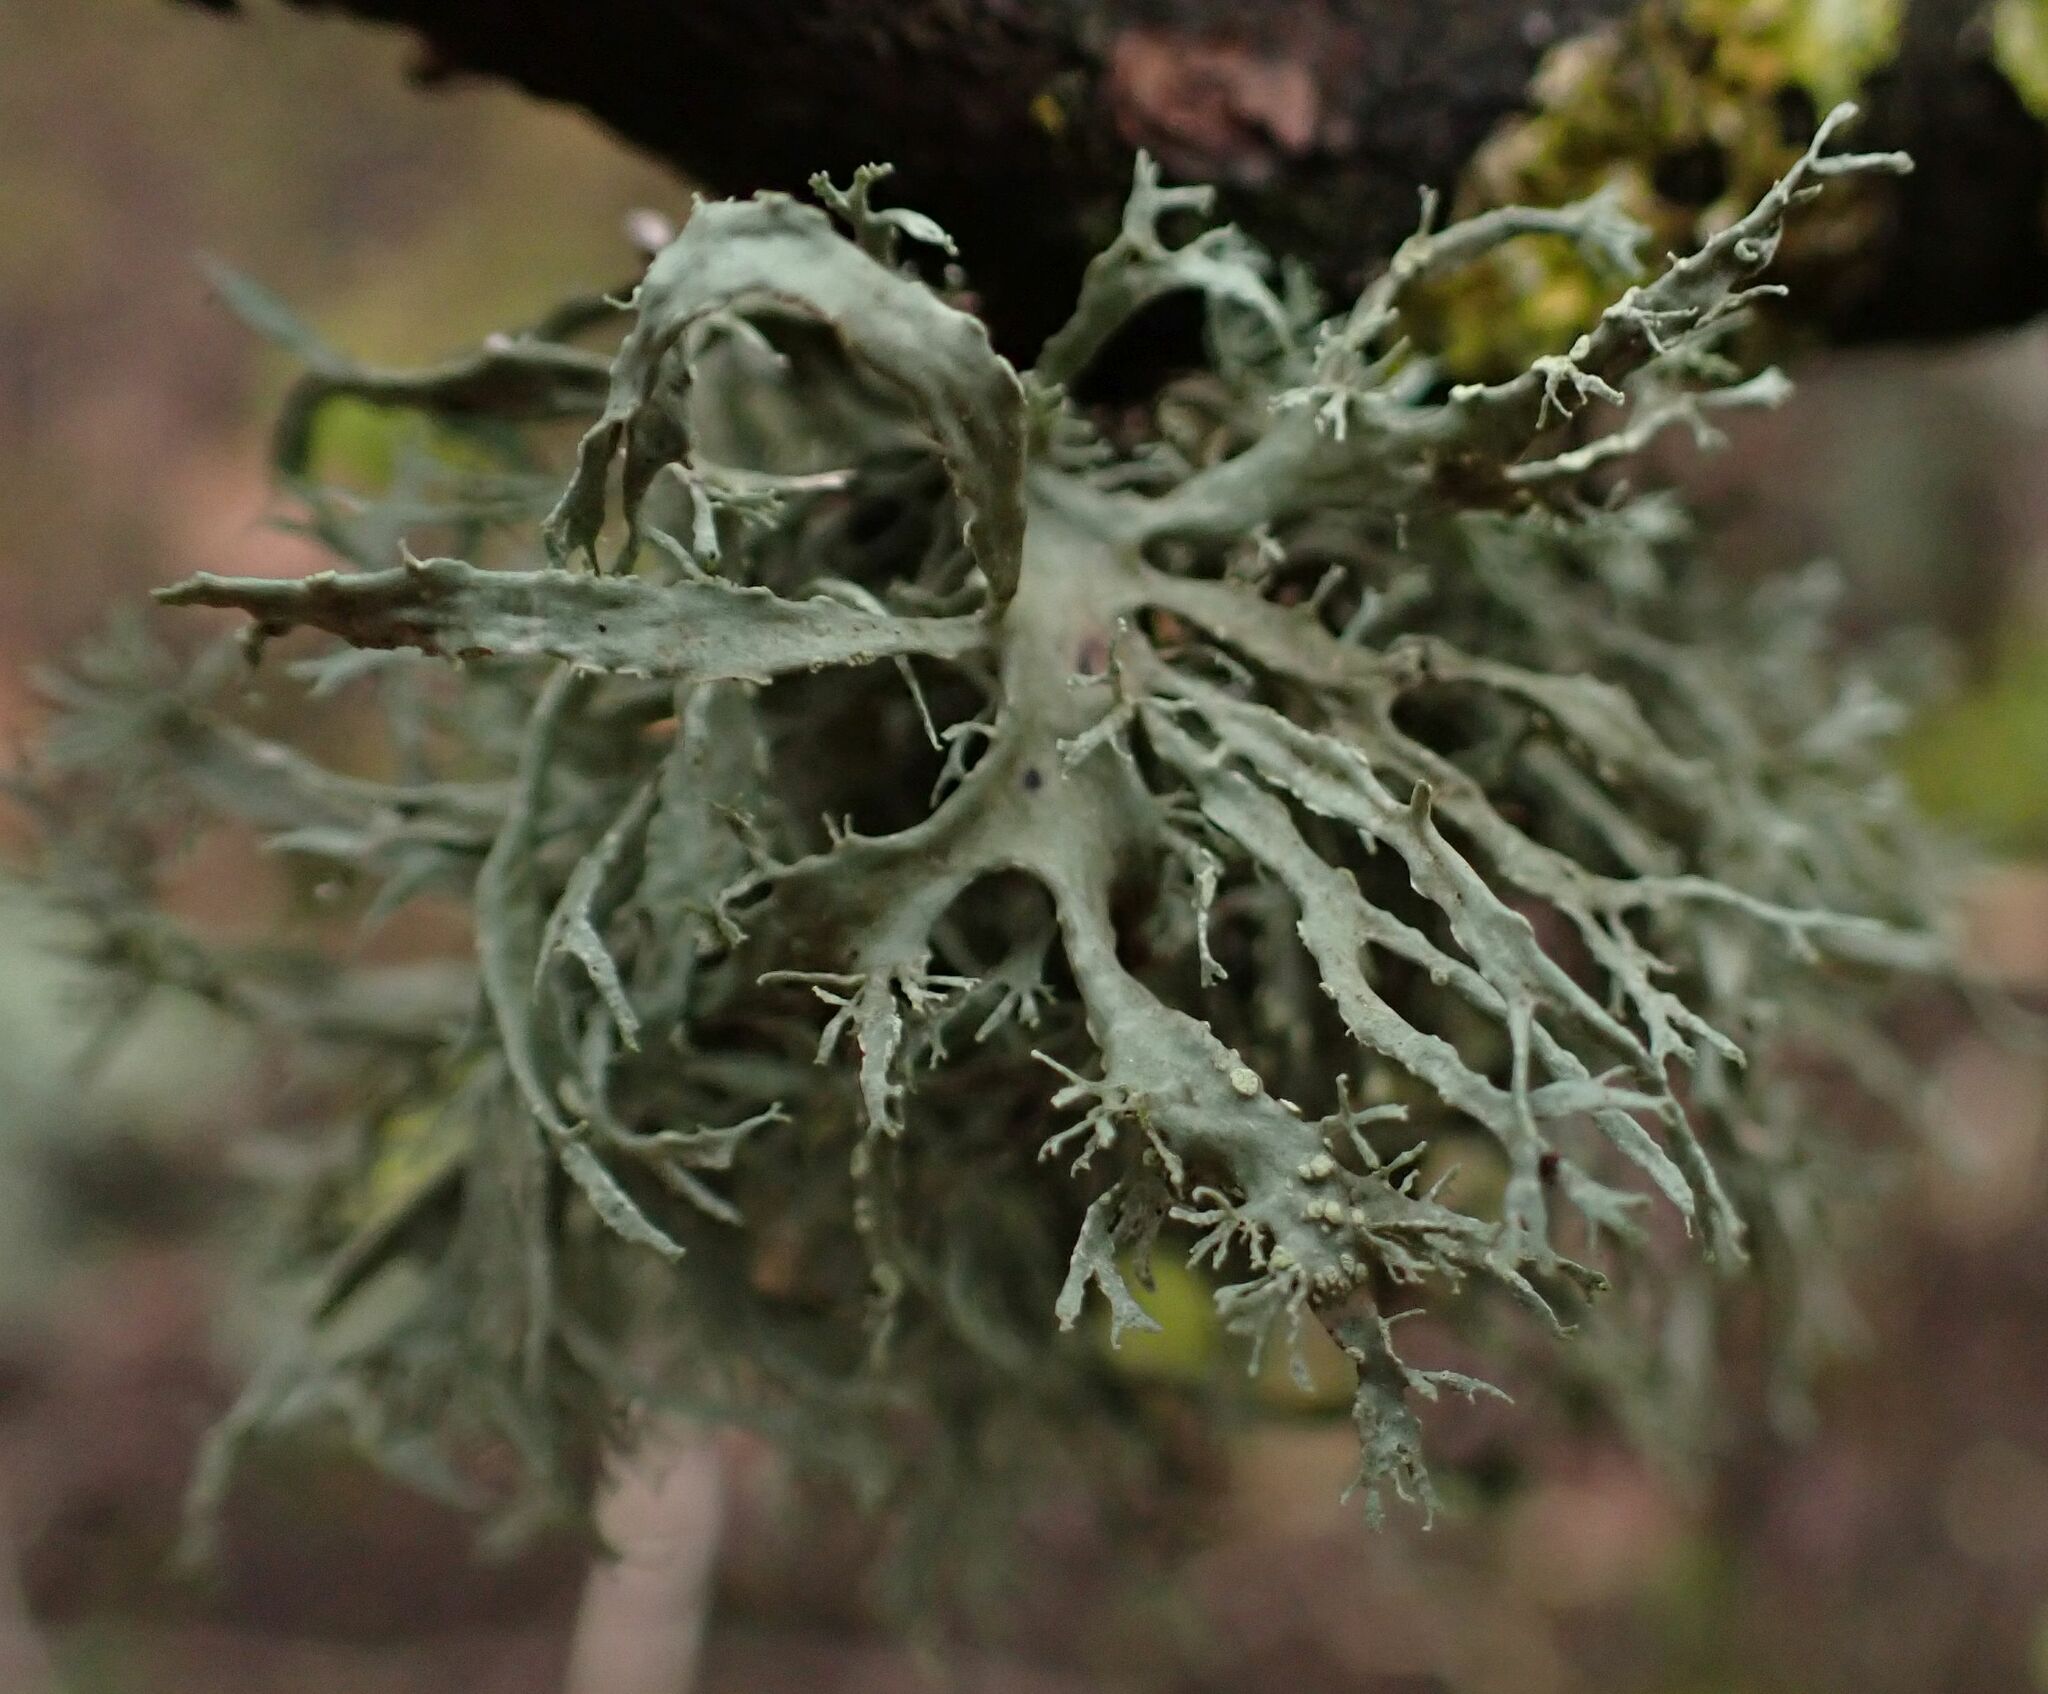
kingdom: Fungi
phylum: Ascomycota
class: Lecanoromycetes
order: Lecanorales
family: Ramalinaceae
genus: Ramalina
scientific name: Ramalina farinacea
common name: Farinose cartilage lichen
